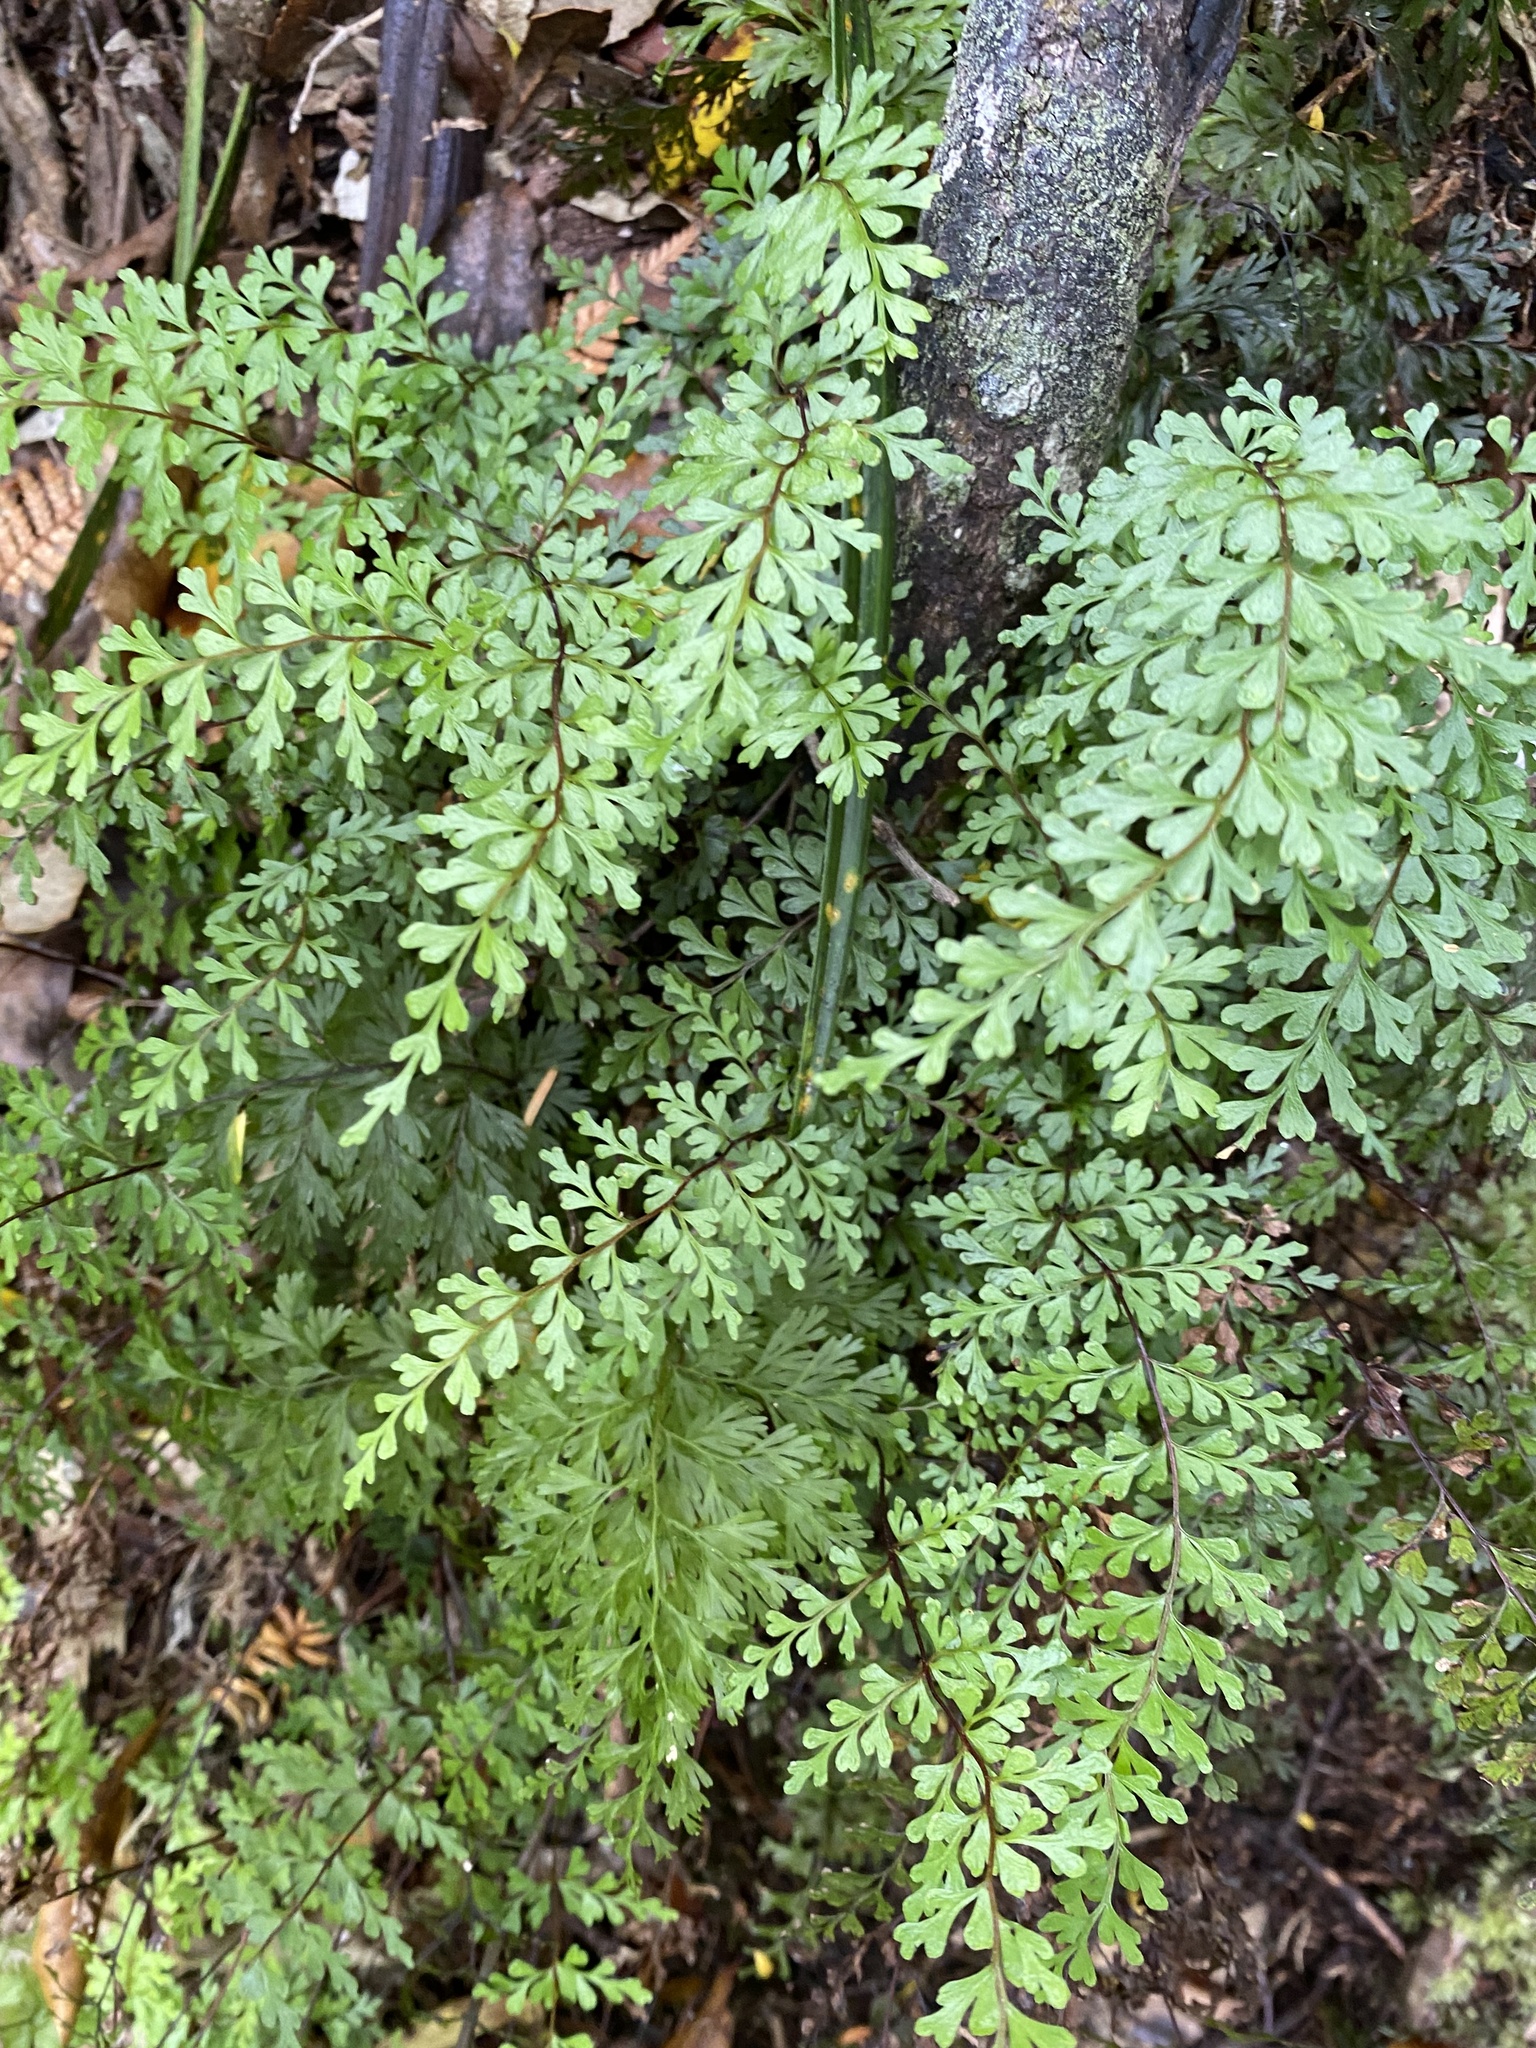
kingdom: Plantae
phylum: Tracheophyta
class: Polypodiopsida
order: Polypodiales
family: Lindsaeaceae
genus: Lindsaea
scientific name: Lindsaea trichomanoides
